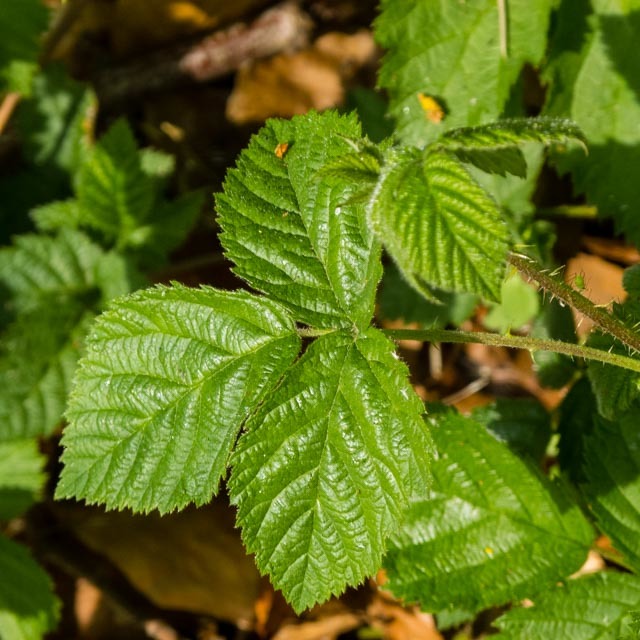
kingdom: Plantae
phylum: Tracheophyta
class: Magnoliopsida
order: Rosales
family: Rosaceae
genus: Rubus
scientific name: Rubus
